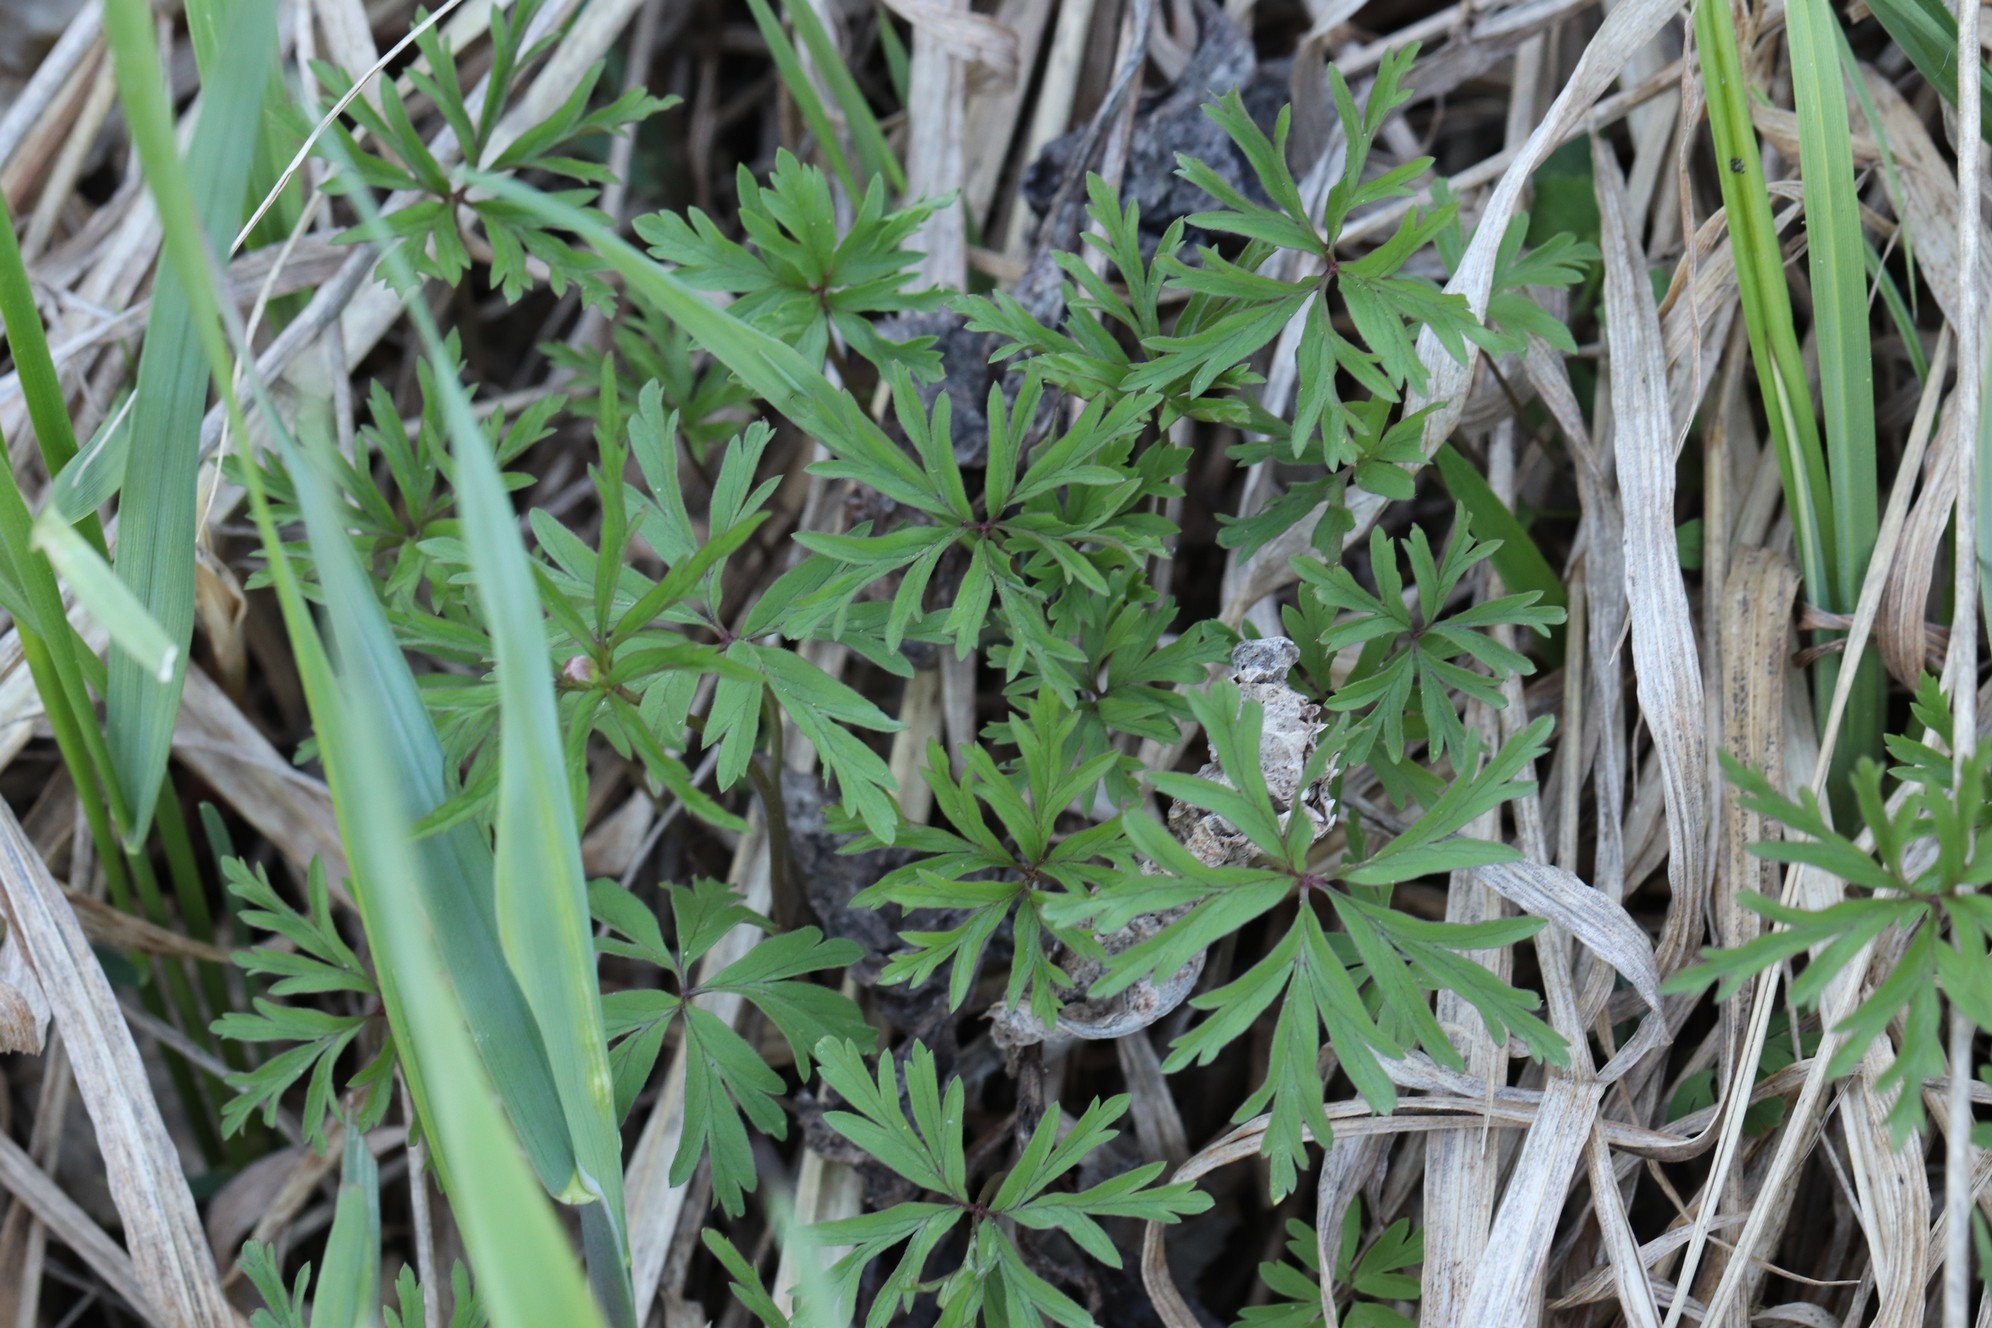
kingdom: Plantae
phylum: Tracheophyta
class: Magnoliopsida
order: Ranunculales
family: Ranunculaceae
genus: Anemone
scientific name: Anemone caerulea
